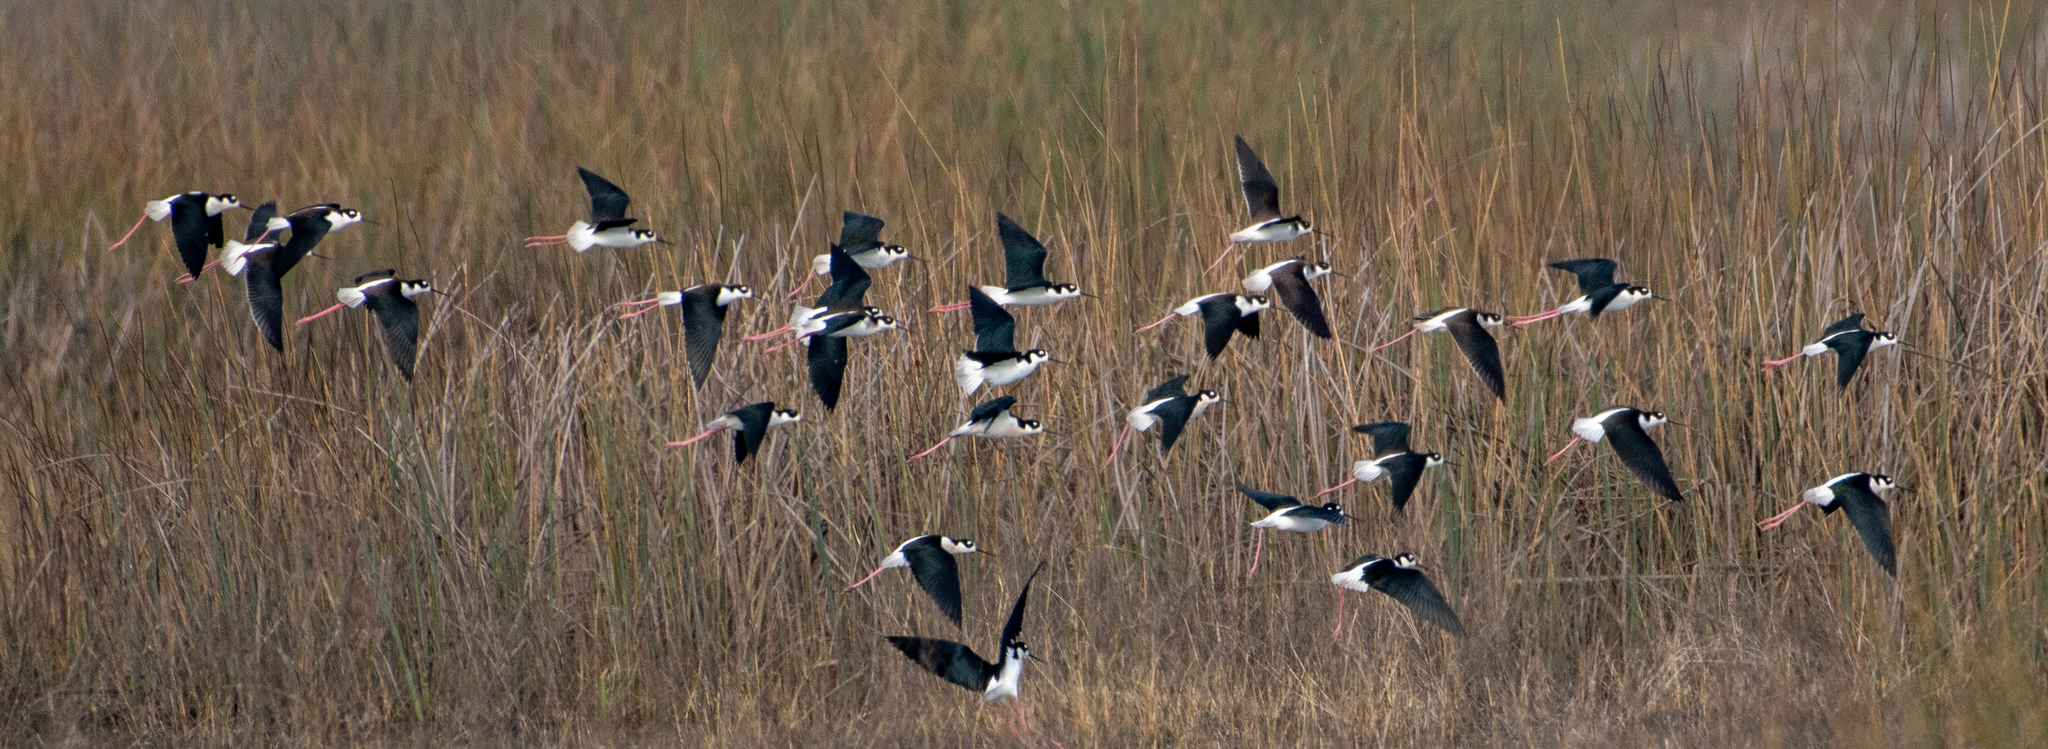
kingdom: Animalia
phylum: Chordata
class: Aves
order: Charadriiformes
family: Recurvirostridae
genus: Himantopus
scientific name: Himantopus mexicanus
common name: Black-necked stilt
